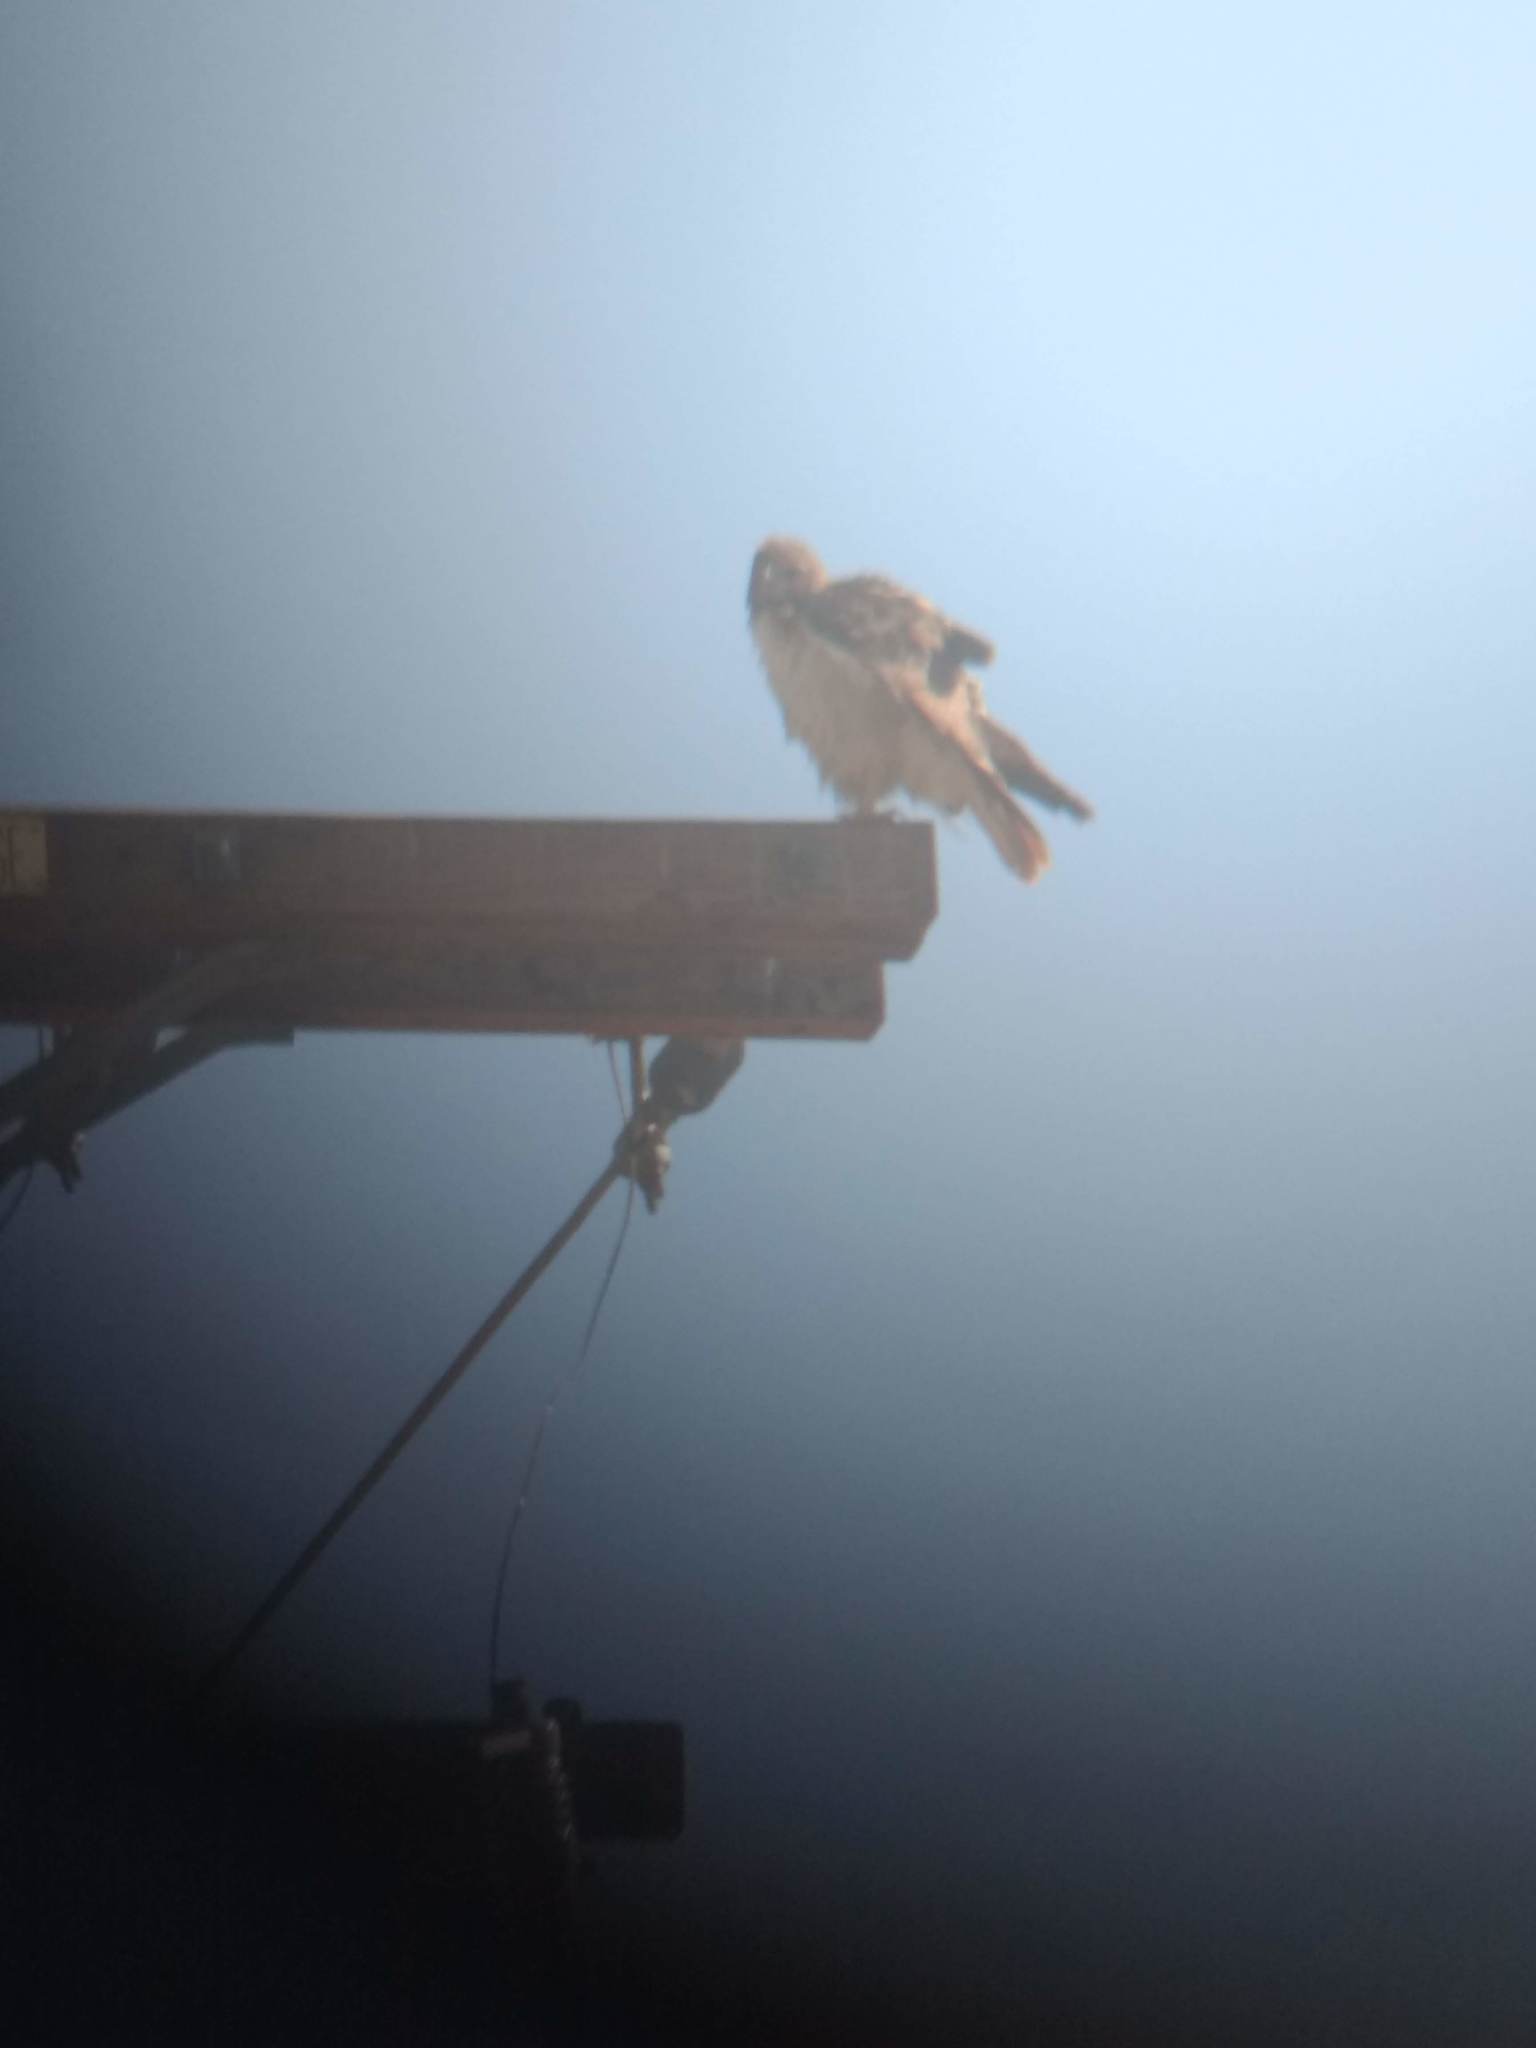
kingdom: Animalia
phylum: Chordata
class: Aves
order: Accipitriformes
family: Accipitridae
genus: Buteo
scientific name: Buteo jamaicensis
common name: Red-tailed hawk
